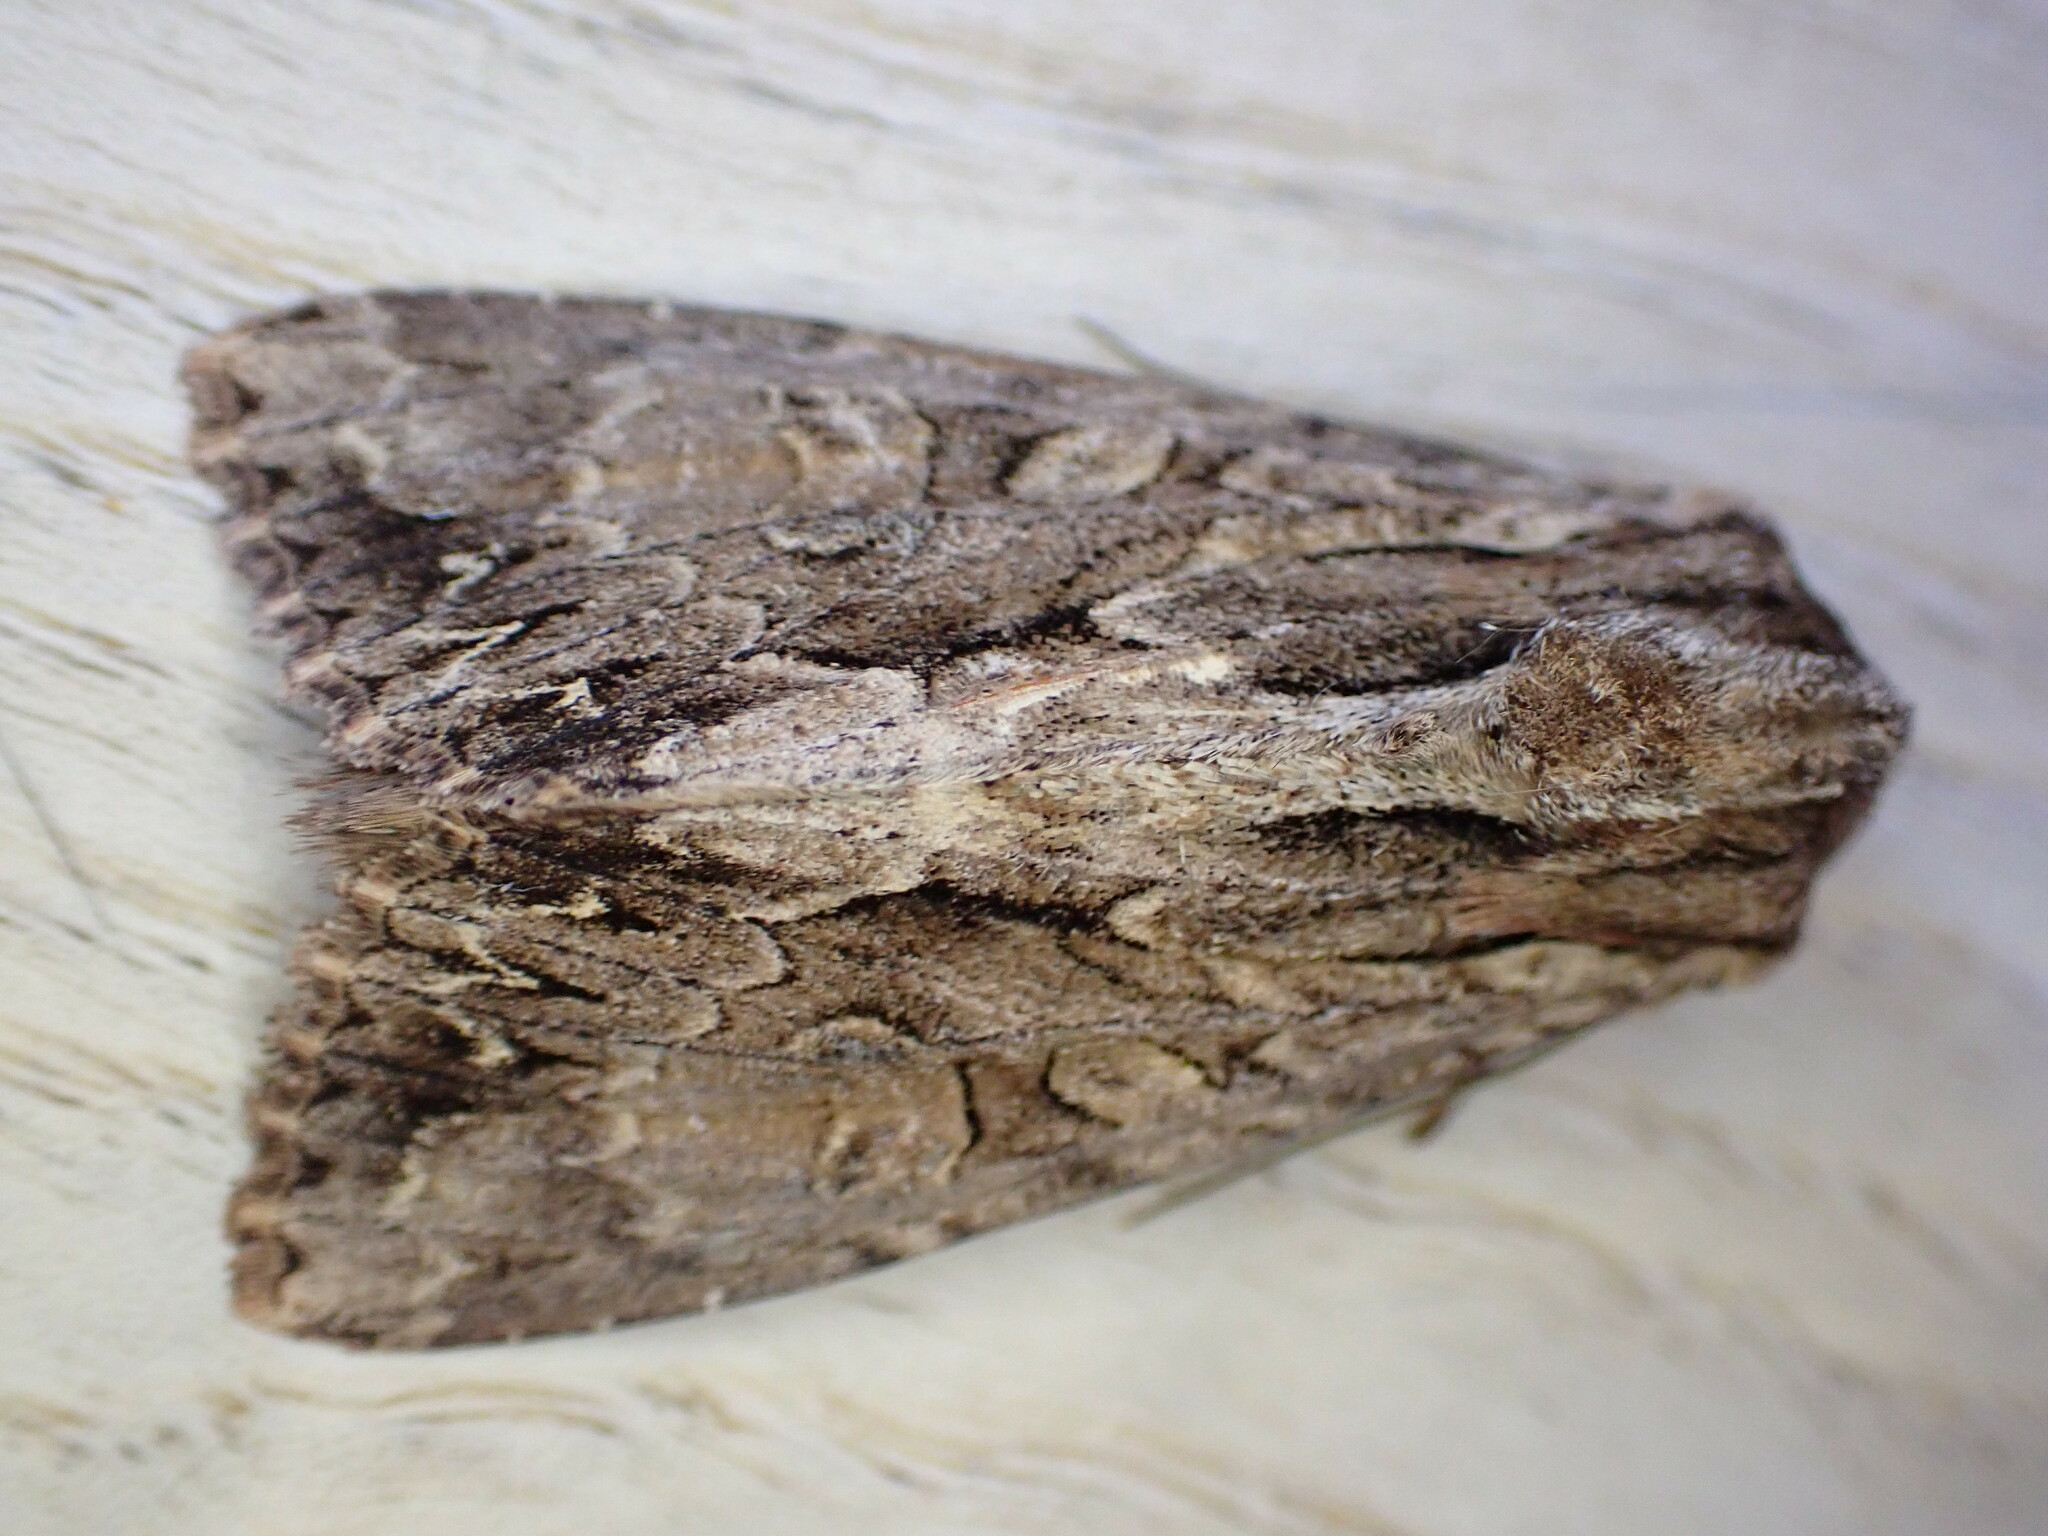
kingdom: Animalia
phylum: Arthropoda
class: Insecta
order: Lepidoptera
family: Noctuidae
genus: Apamea
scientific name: Apamea monoglypha
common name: Dark arches
